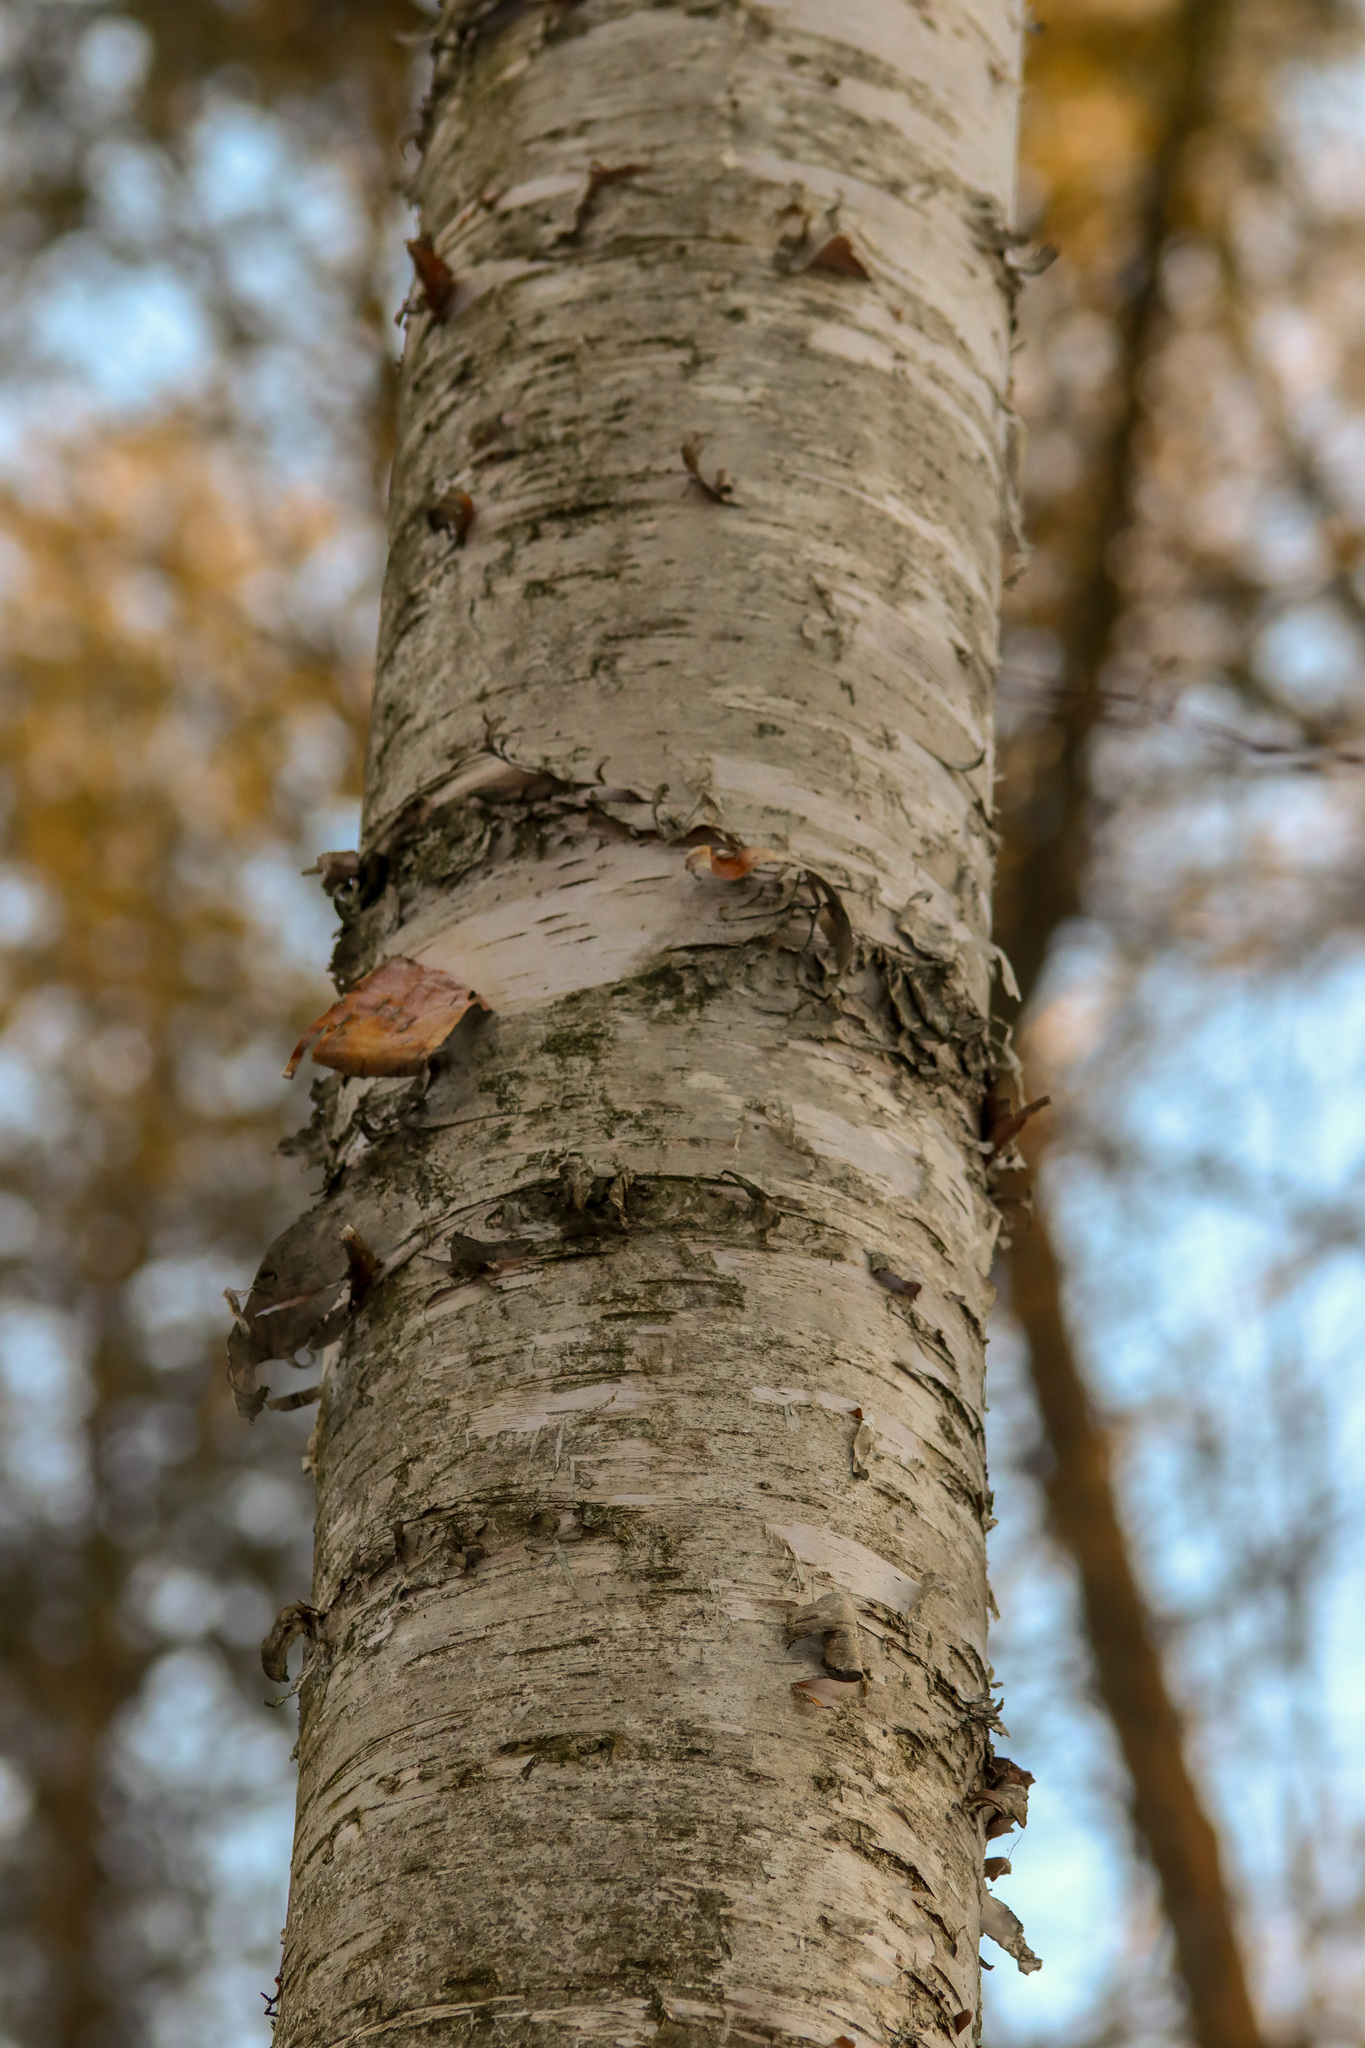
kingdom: Plantae
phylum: Tracheophyta
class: Magnoliopsida
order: Fagales
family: Betulaceae
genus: Betula
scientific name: Betula papyrifera
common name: Paper birch
